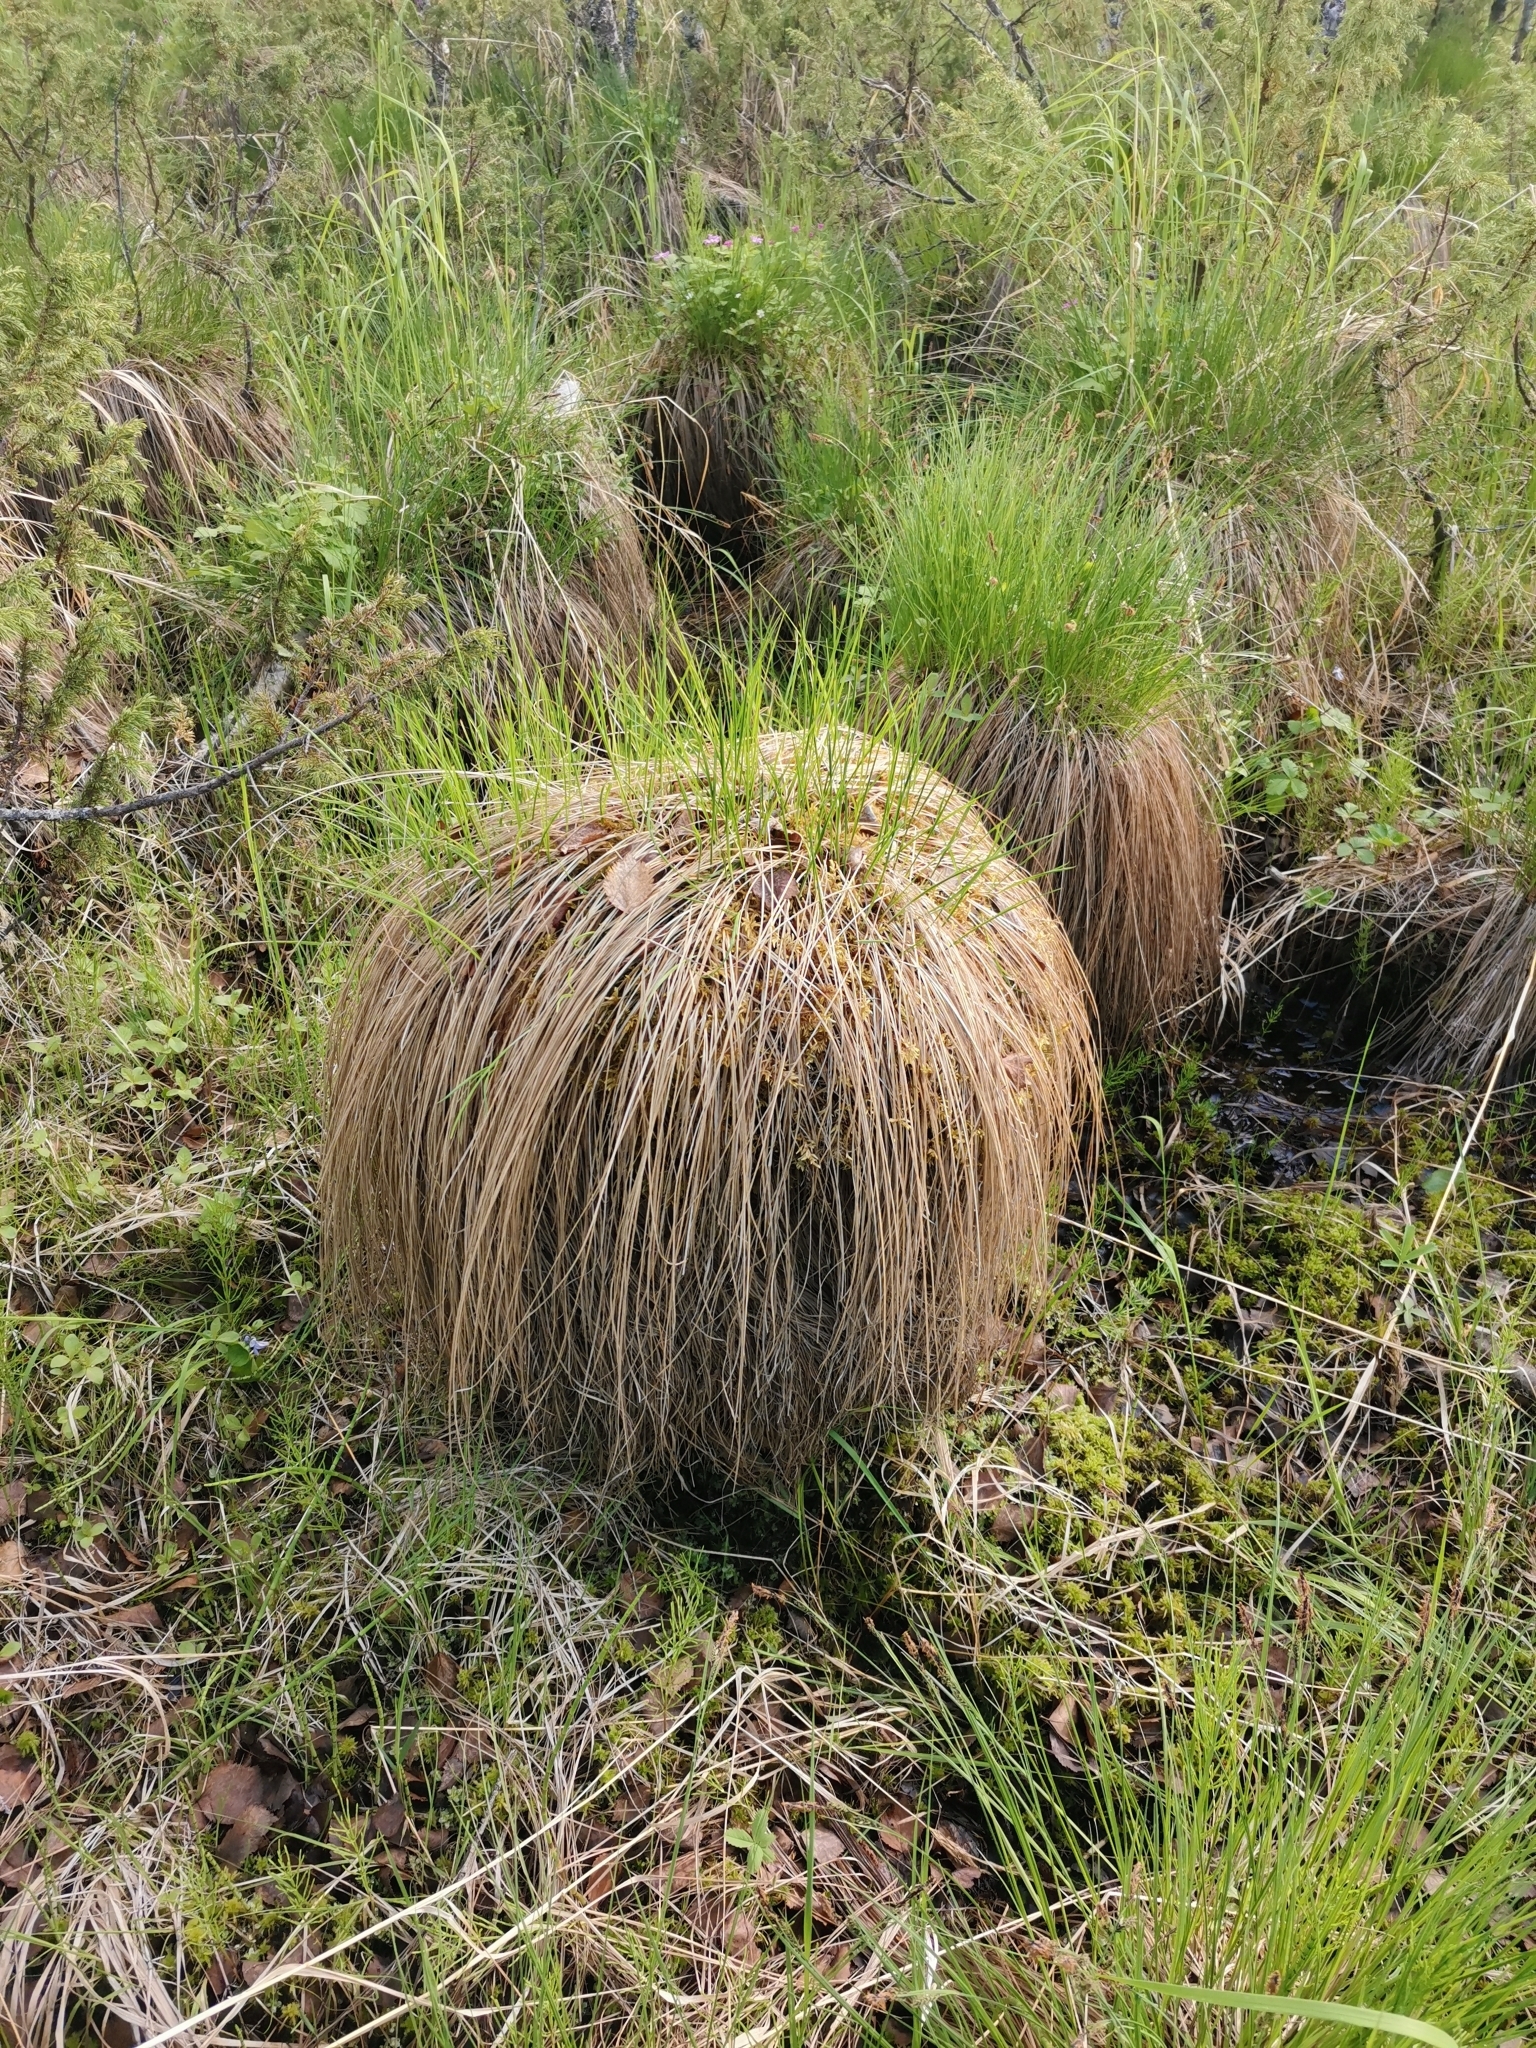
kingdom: Plantae
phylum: Tracheophyta
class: Liliopsida
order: Poales
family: Cyperaceae
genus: Carex
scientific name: Carex cespitosa
